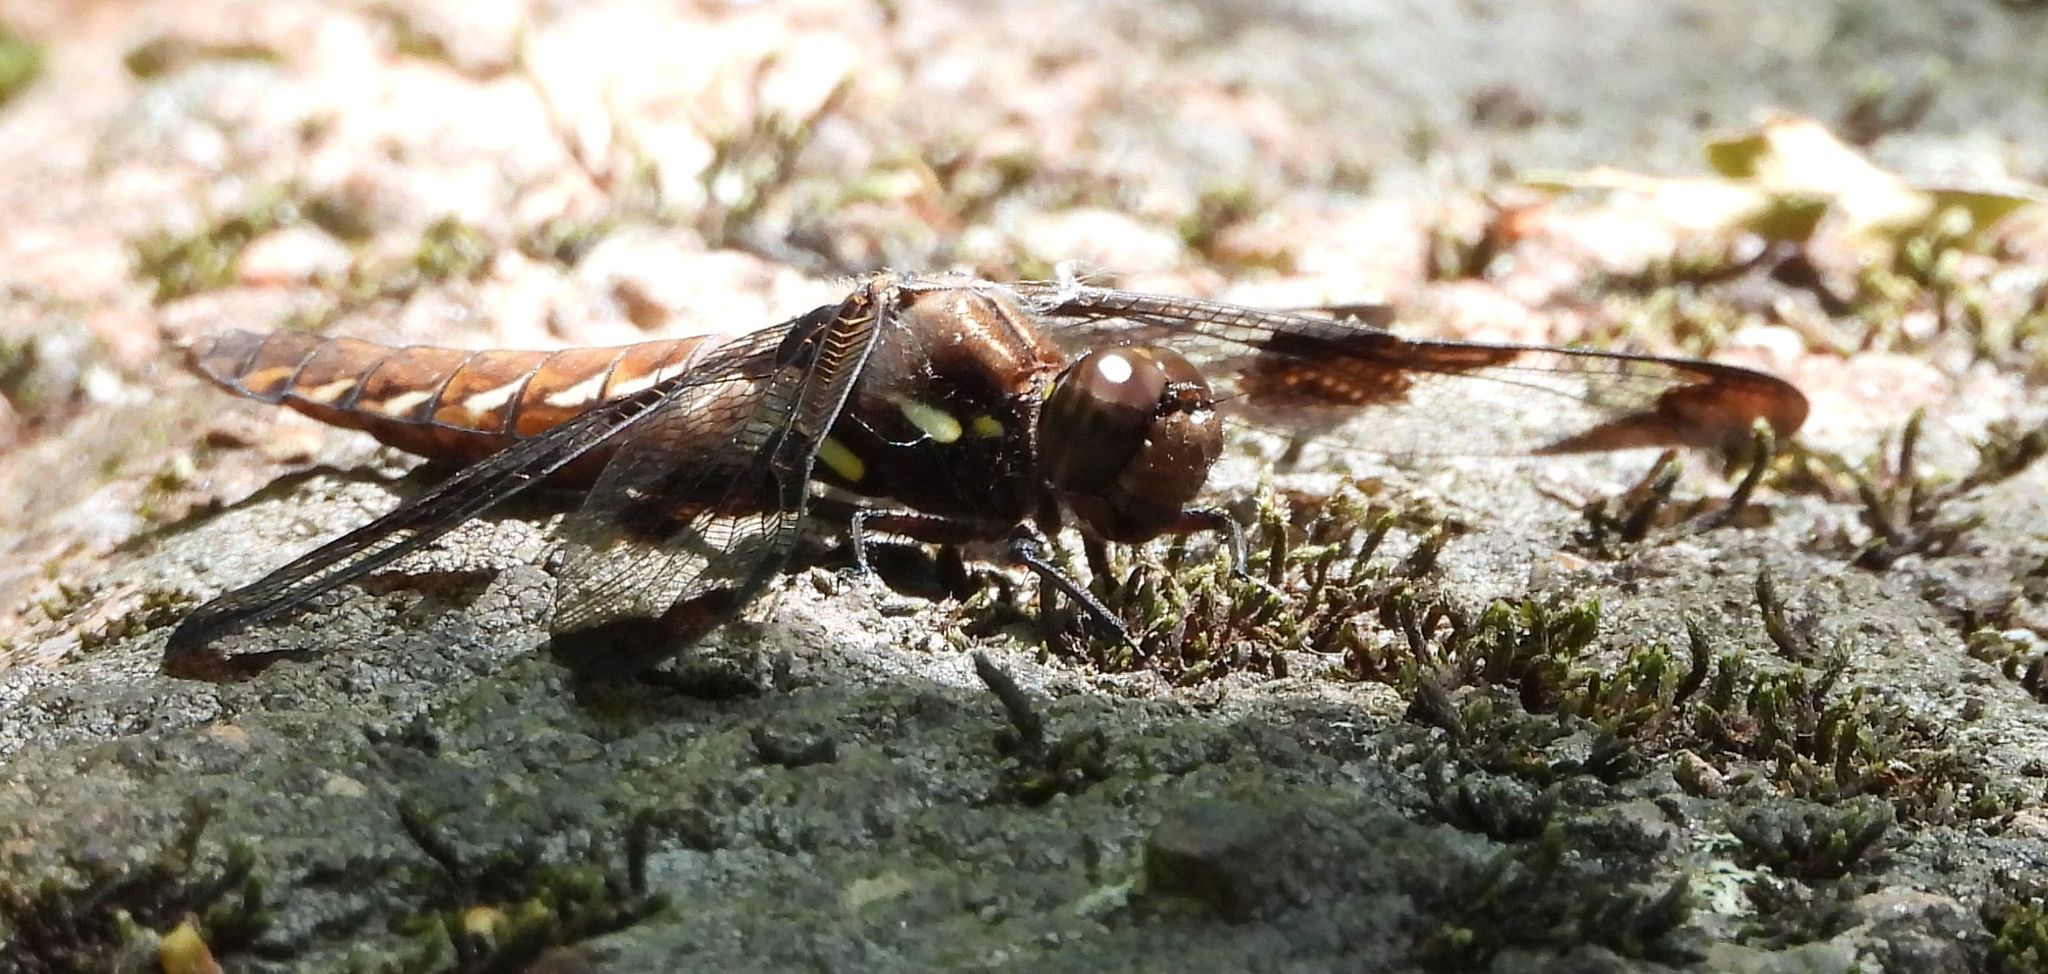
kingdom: Animalia
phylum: Arthropoda
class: Insecta
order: Odonata
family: Libellulidae
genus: Plathemis
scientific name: Plathemis lydia
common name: Common whitetail
